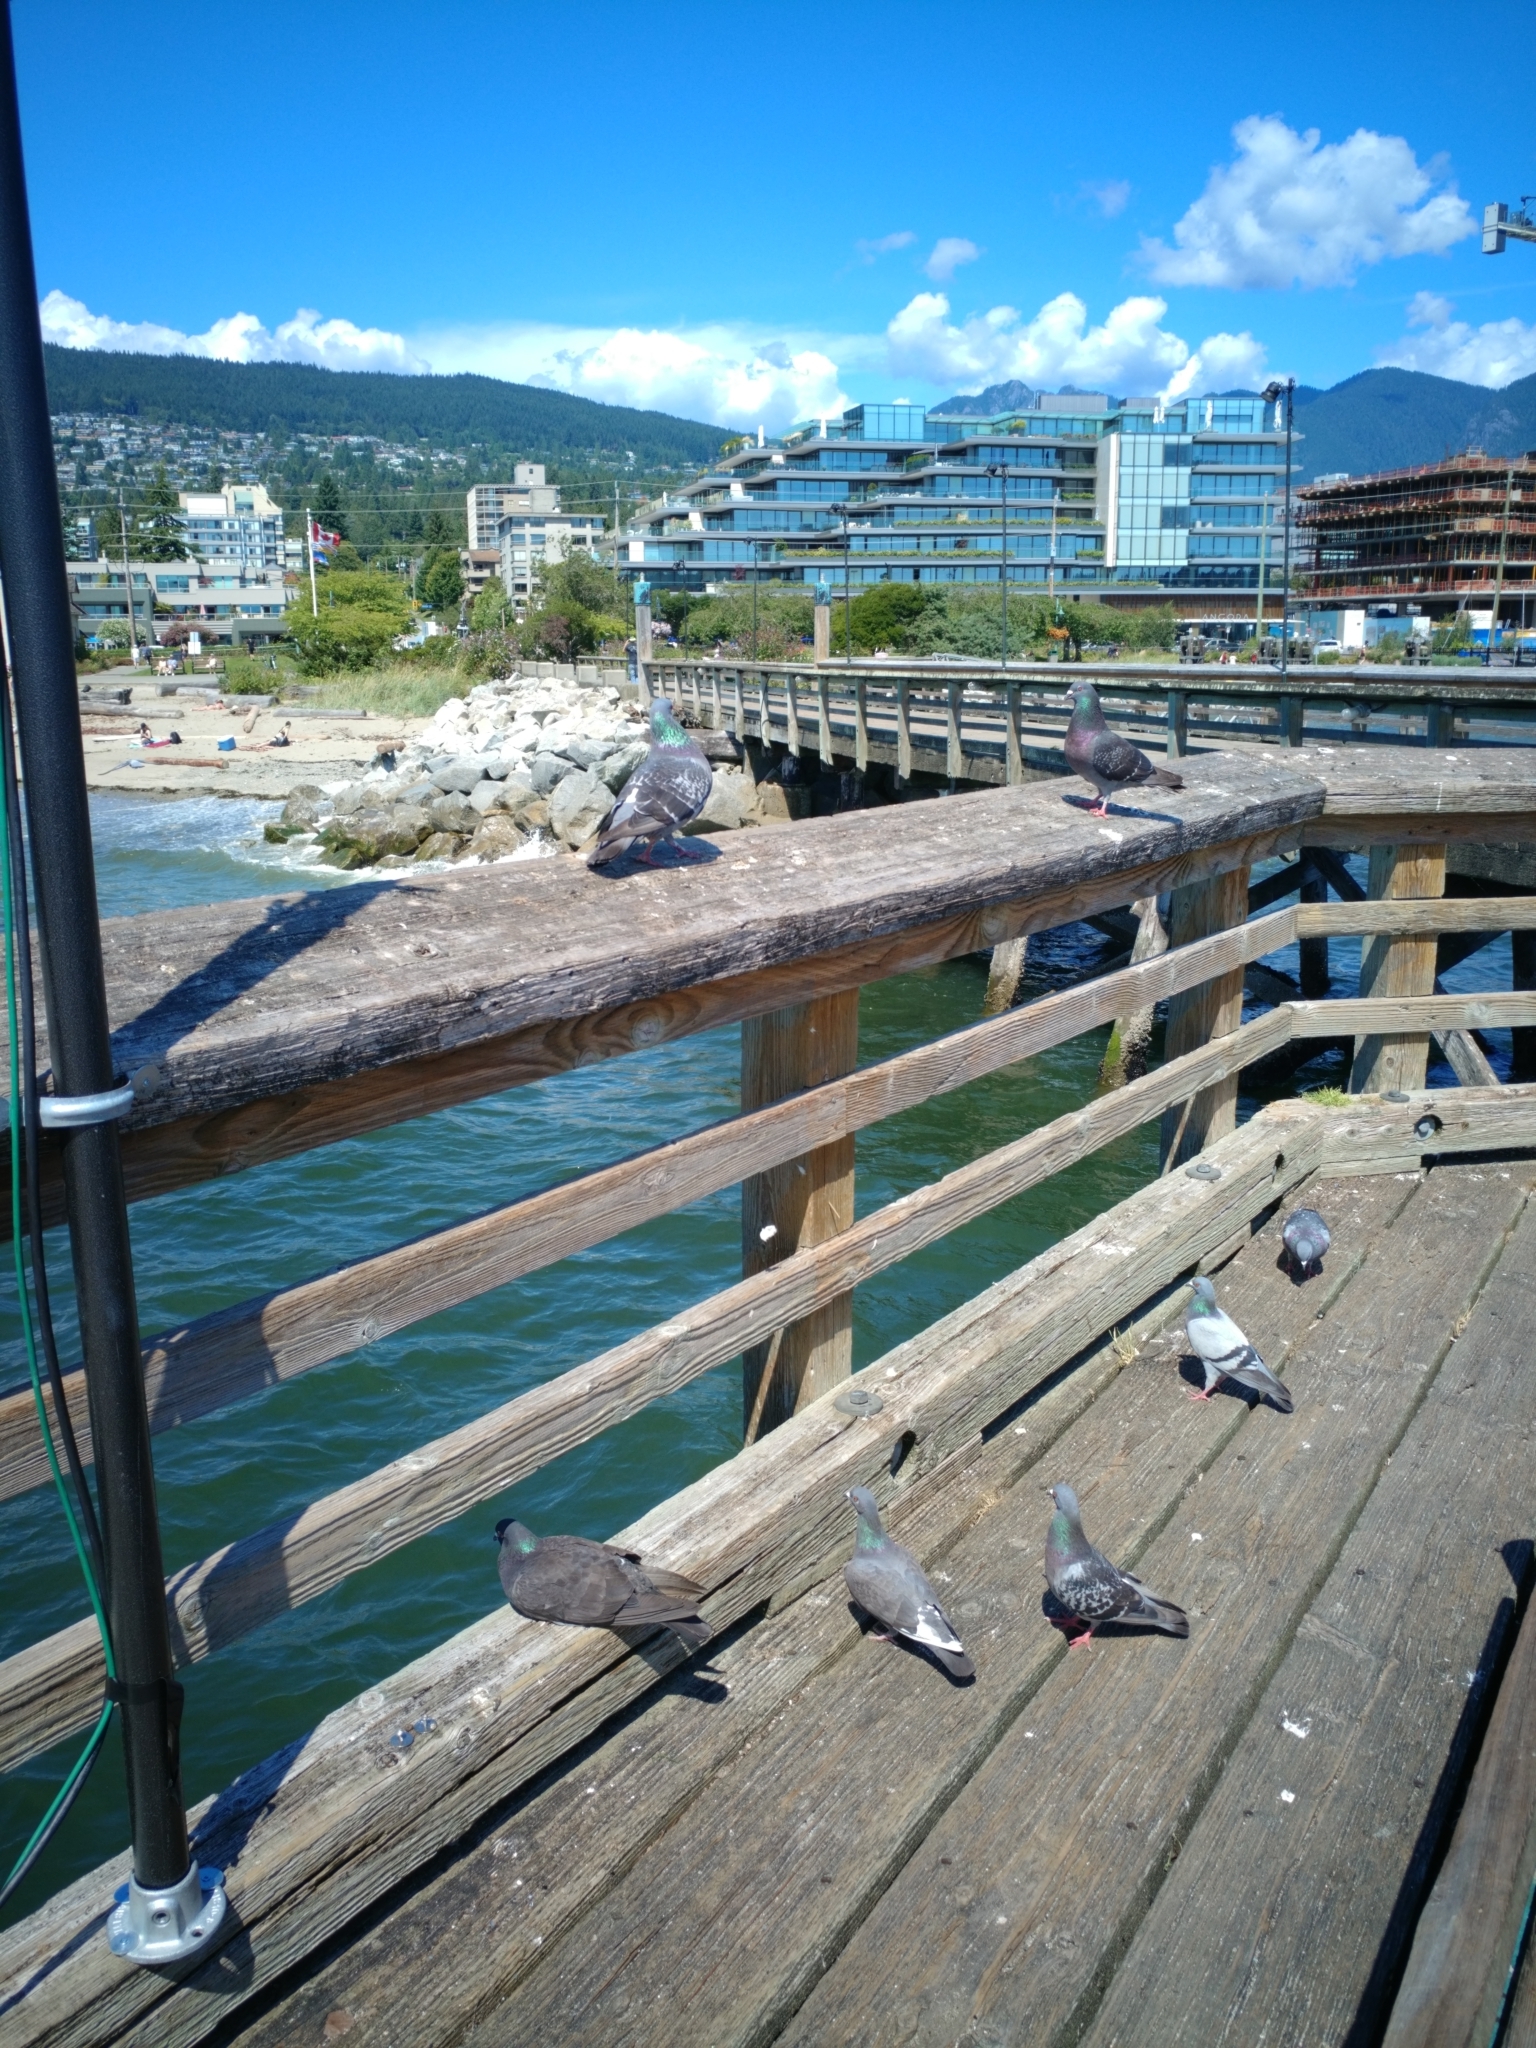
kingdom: Animalia
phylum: Chordata
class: Aves
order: Columbiformes
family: Columbidae
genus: Columba
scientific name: Columba livia
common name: Rock pigeon
